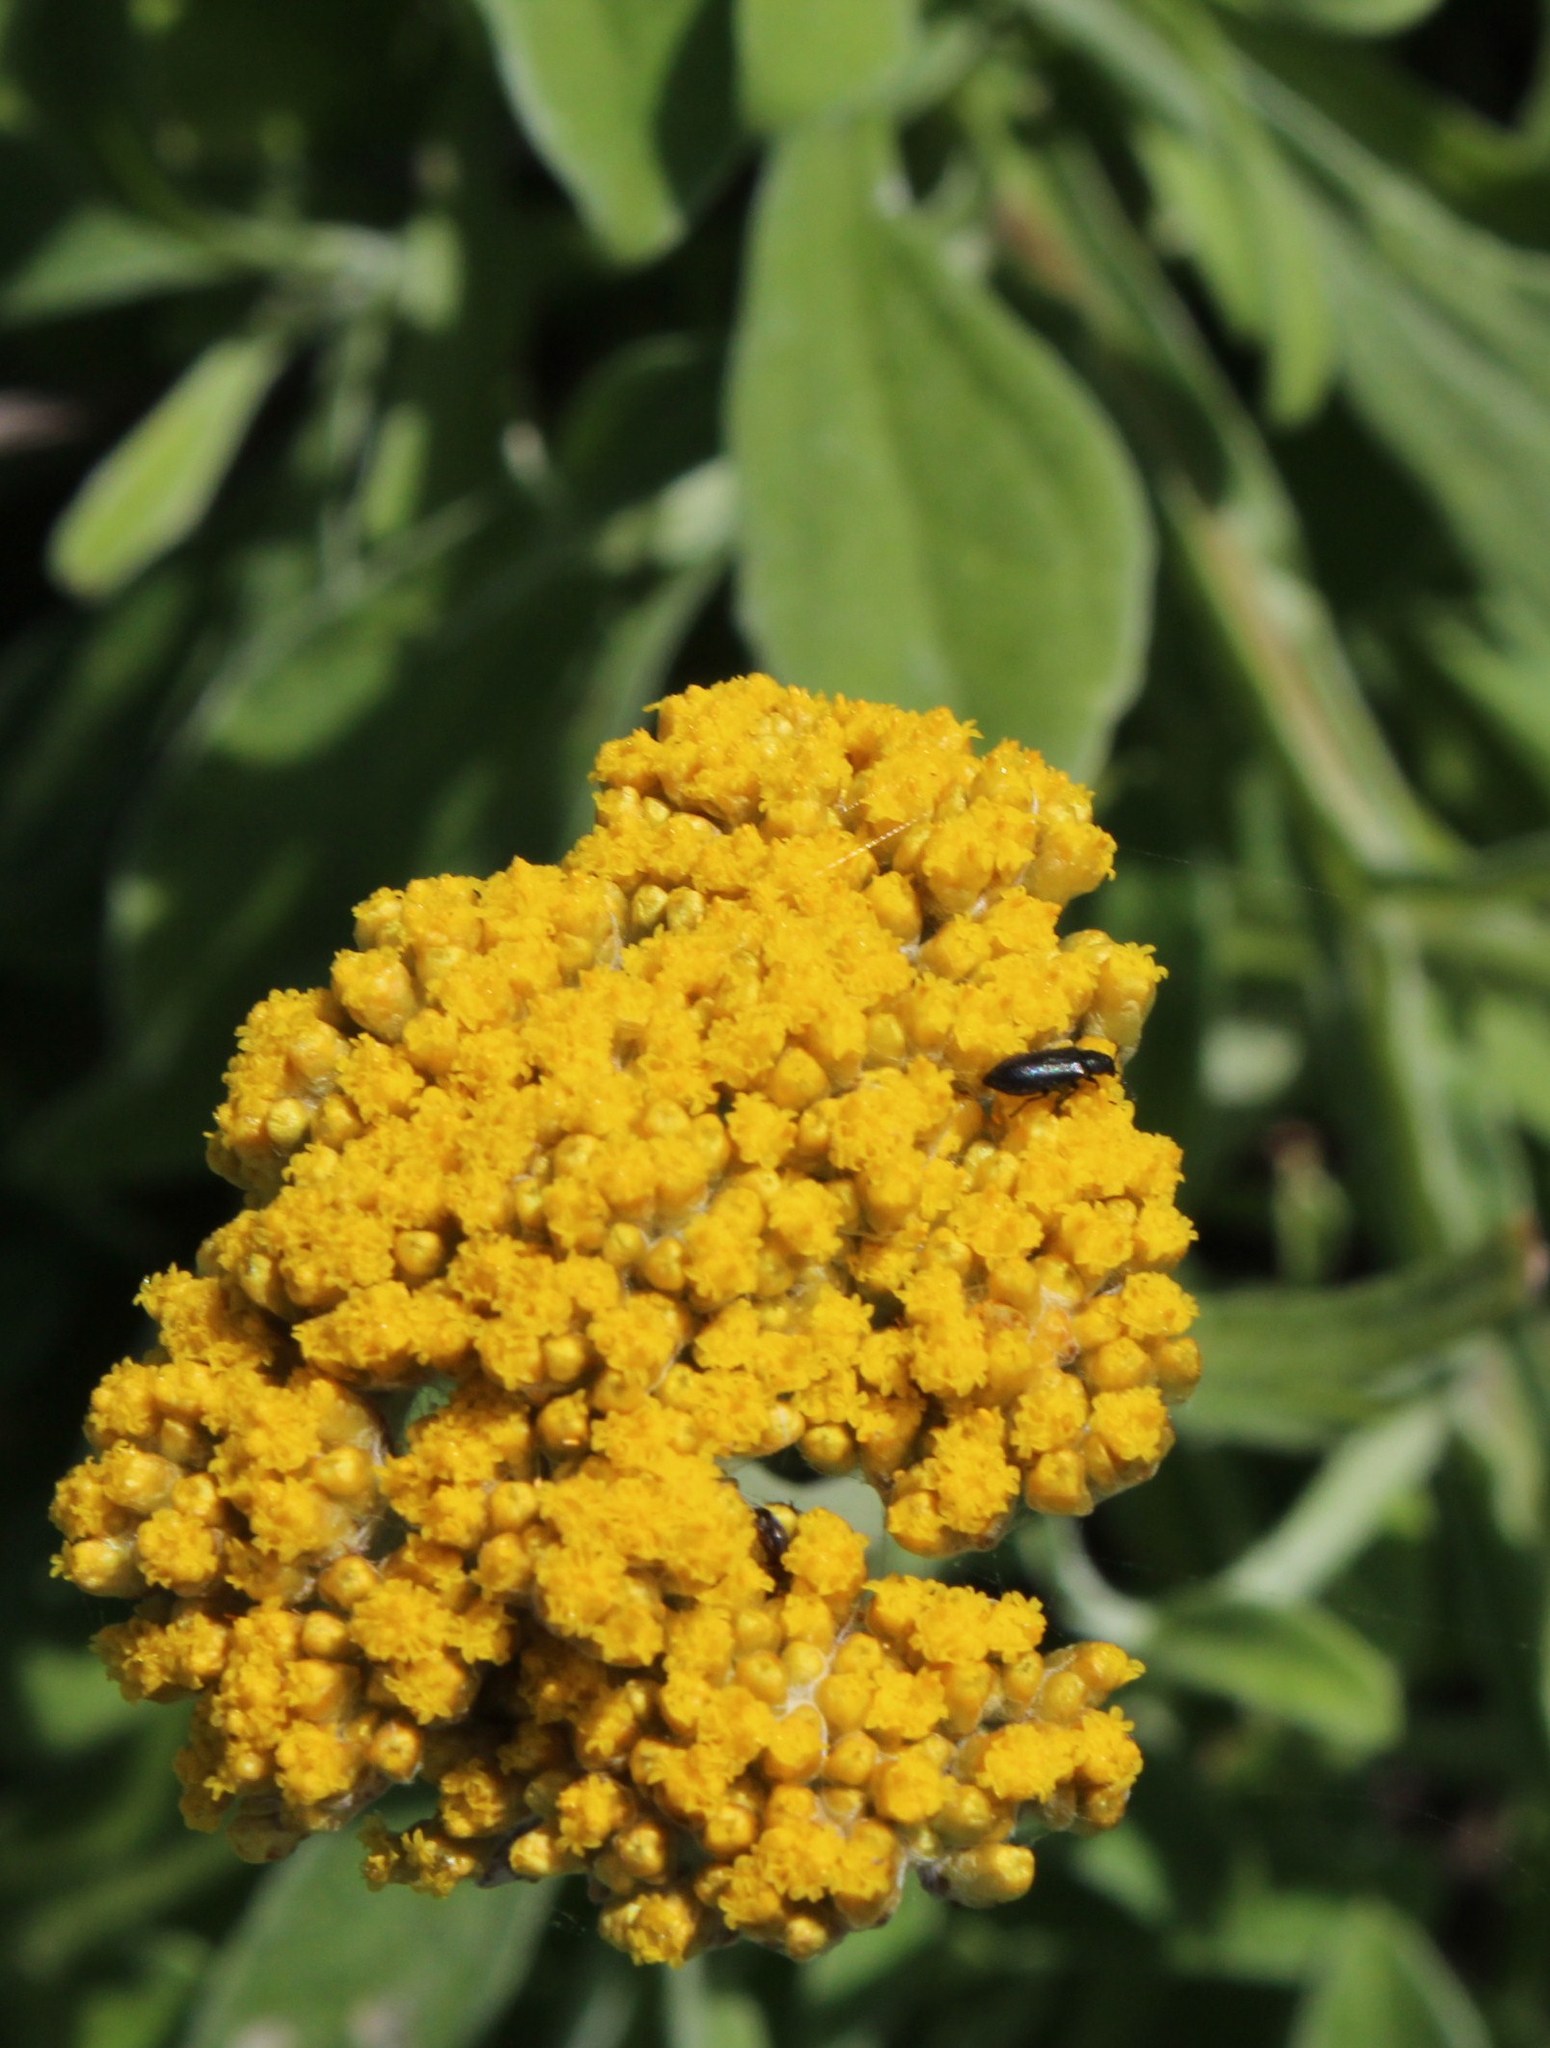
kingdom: Plantae
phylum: Tracheophyta
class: Magnoliopsida
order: Asterales
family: Asteraceae
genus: Helichrysum
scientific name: Helichrysum odoratissimum
